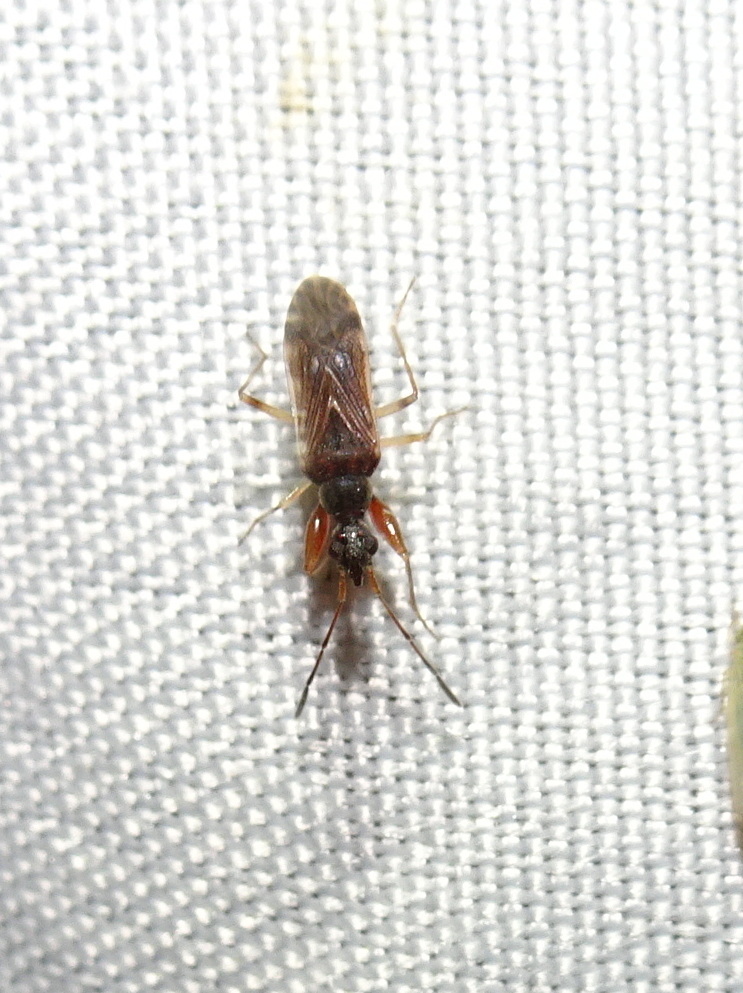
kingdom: Animalia
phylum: Arthropoda
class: Insecta
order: Hemiptera
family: Rhyparochromidae
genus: Heraeus
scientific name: Heraeus plebejus
